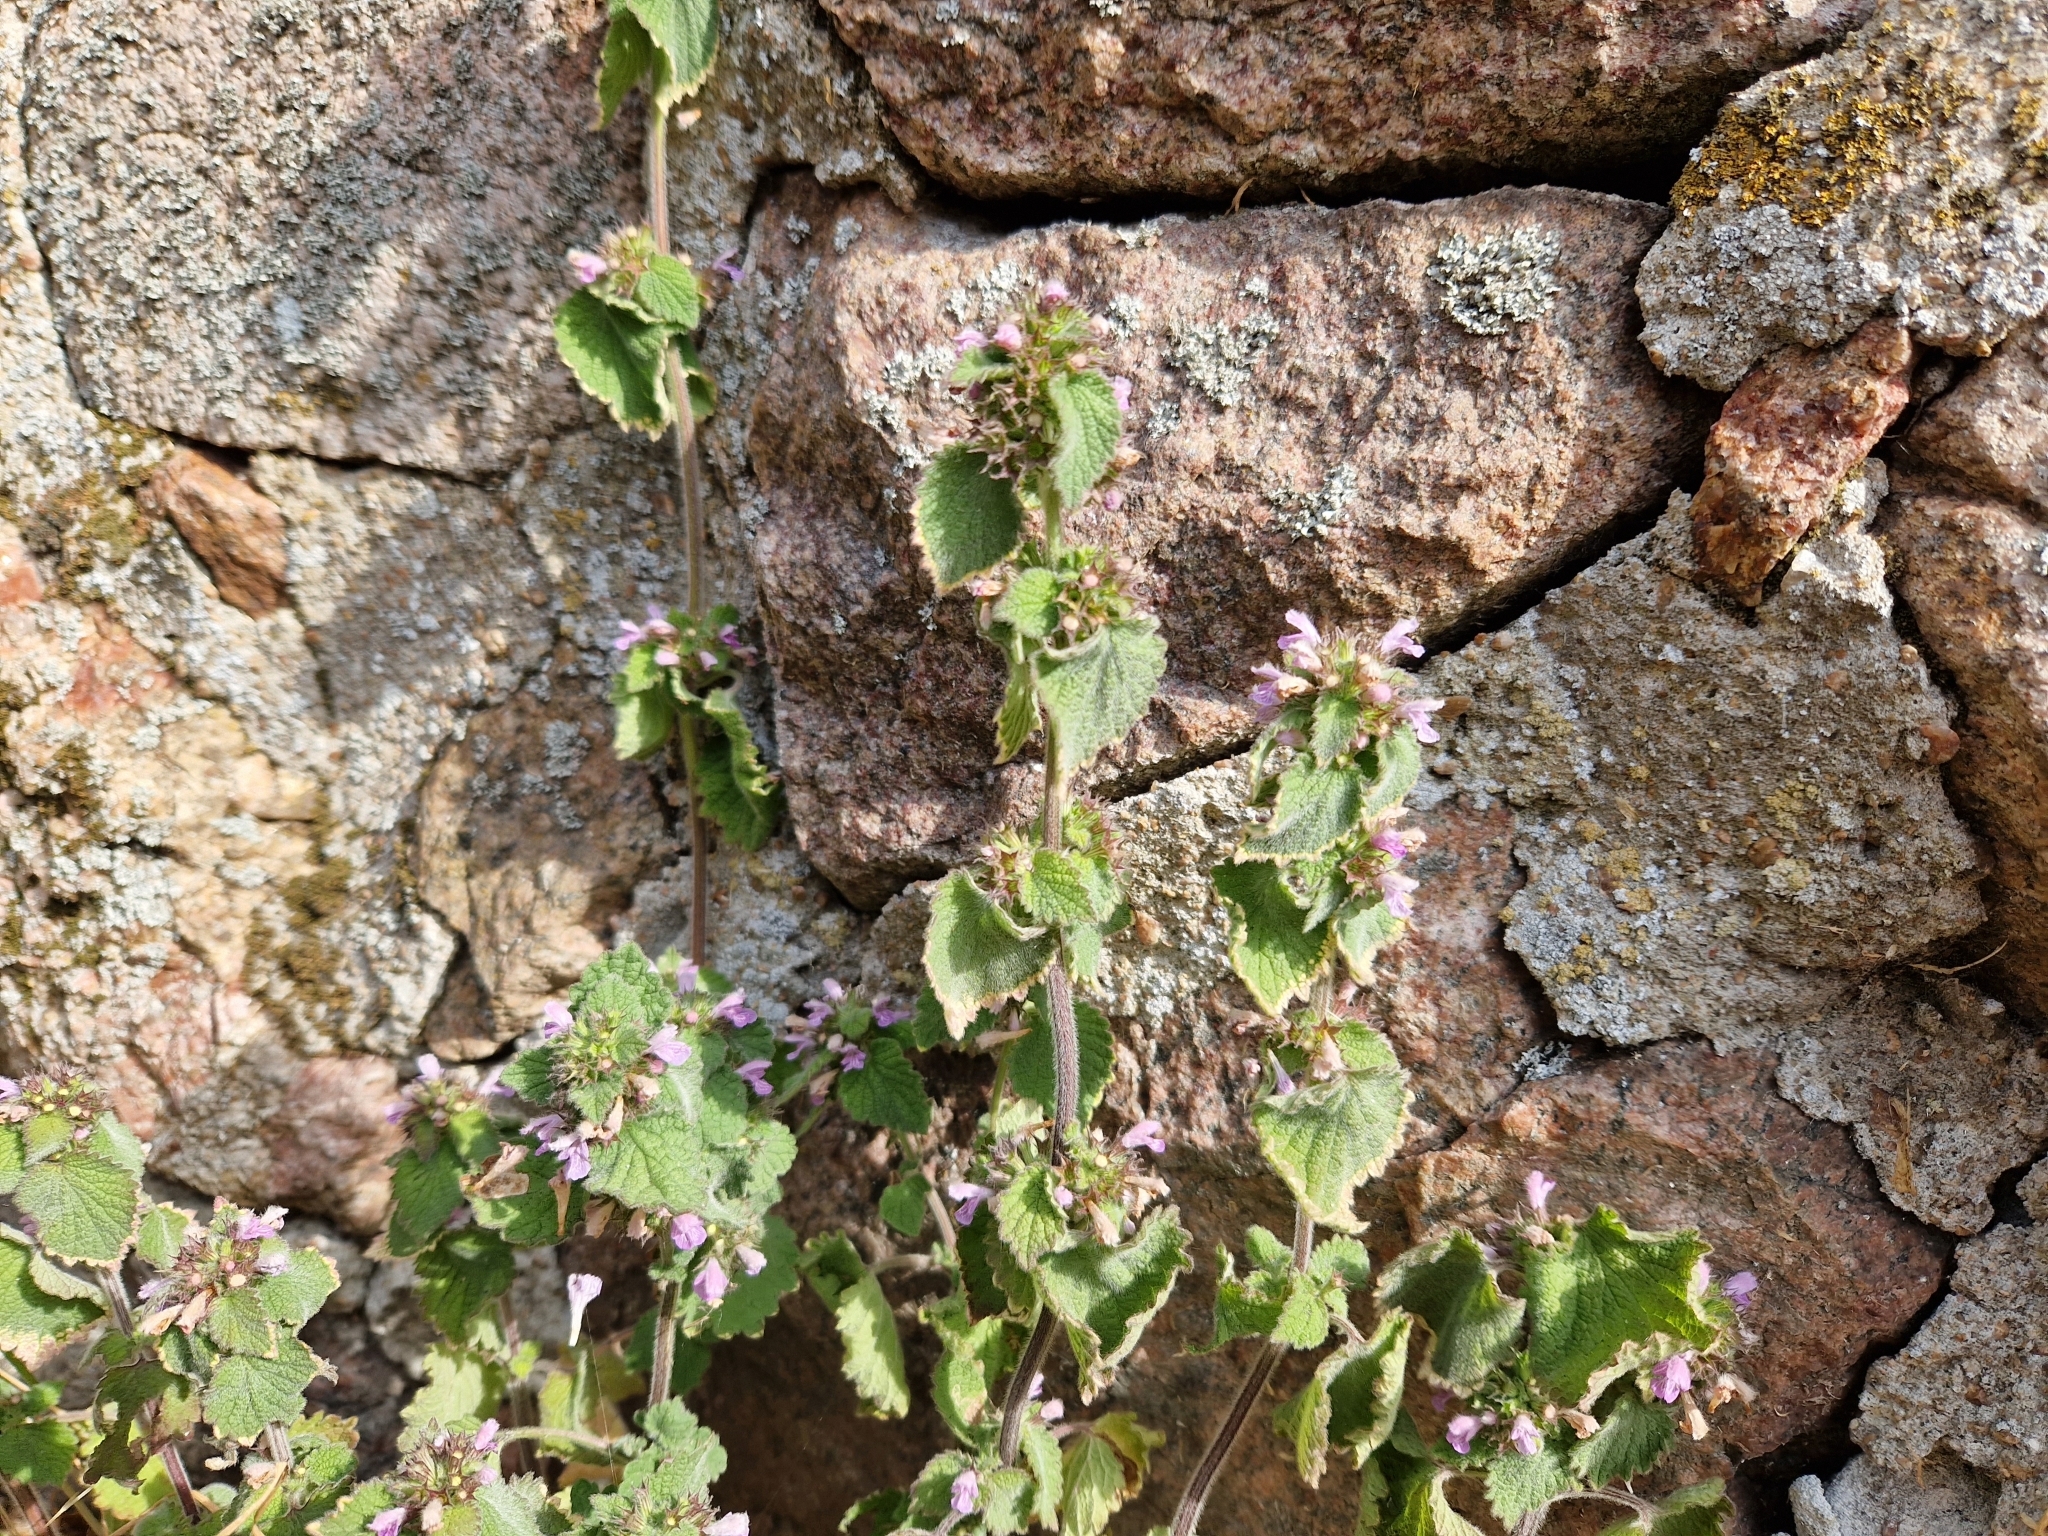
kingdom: Plantae
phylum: Tracheophyta
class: Magnoliopsida
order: Lamiales
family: Lamiaceae
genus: Ballota
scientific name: Ballota nigra
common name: Black horehound
